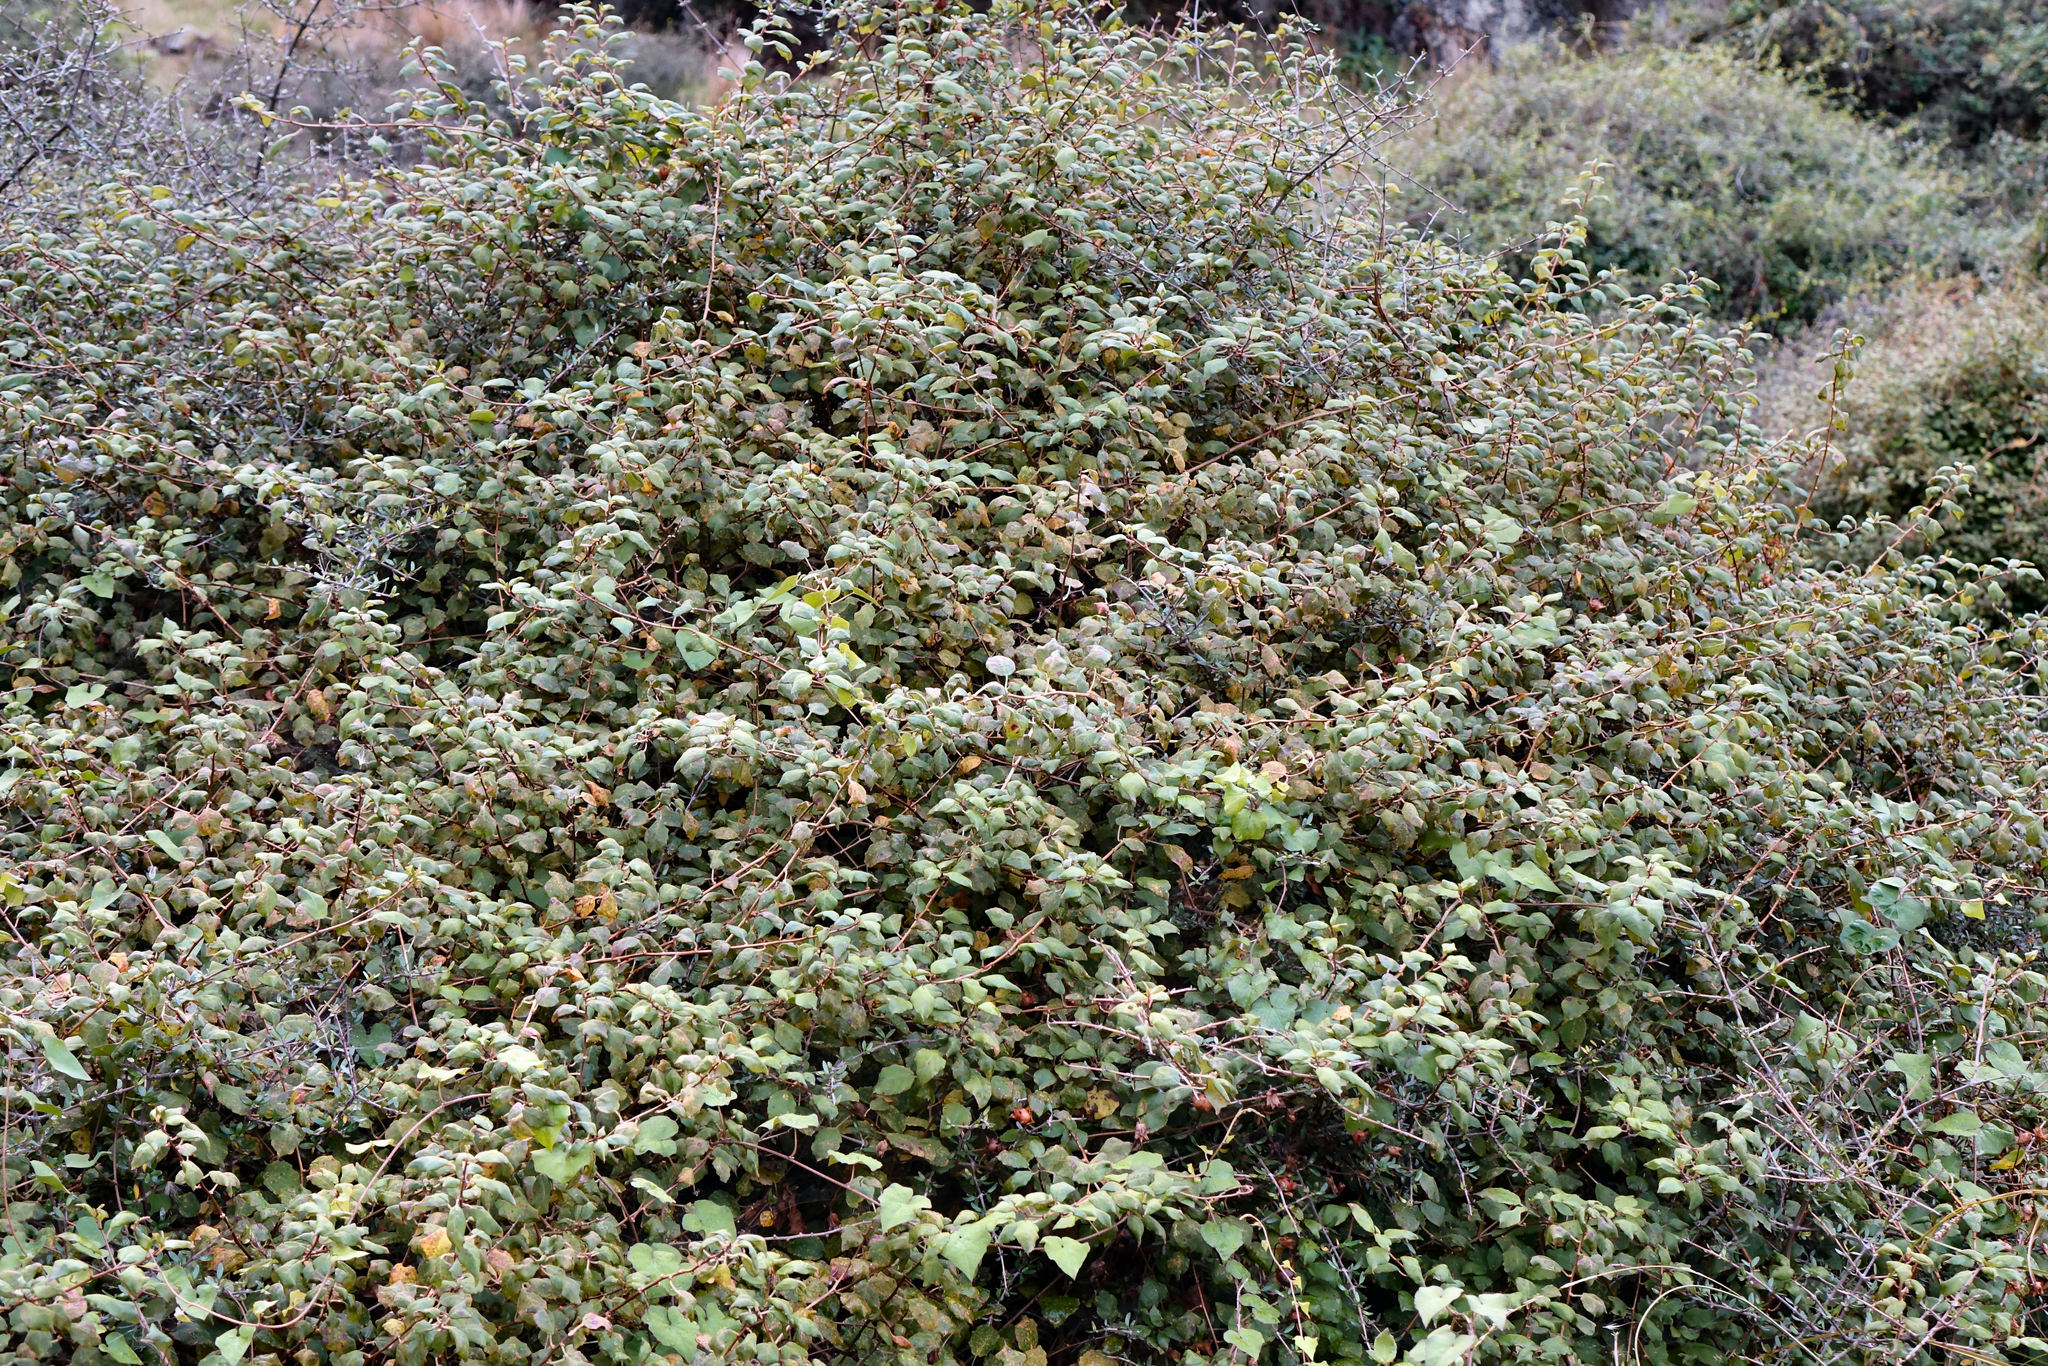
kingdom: Plantae
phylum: Tracheophyta
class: Magnoliopsida
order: Myrtales
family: Onagraceae
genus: Fuchsia
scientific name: Fuchsia perscandens
